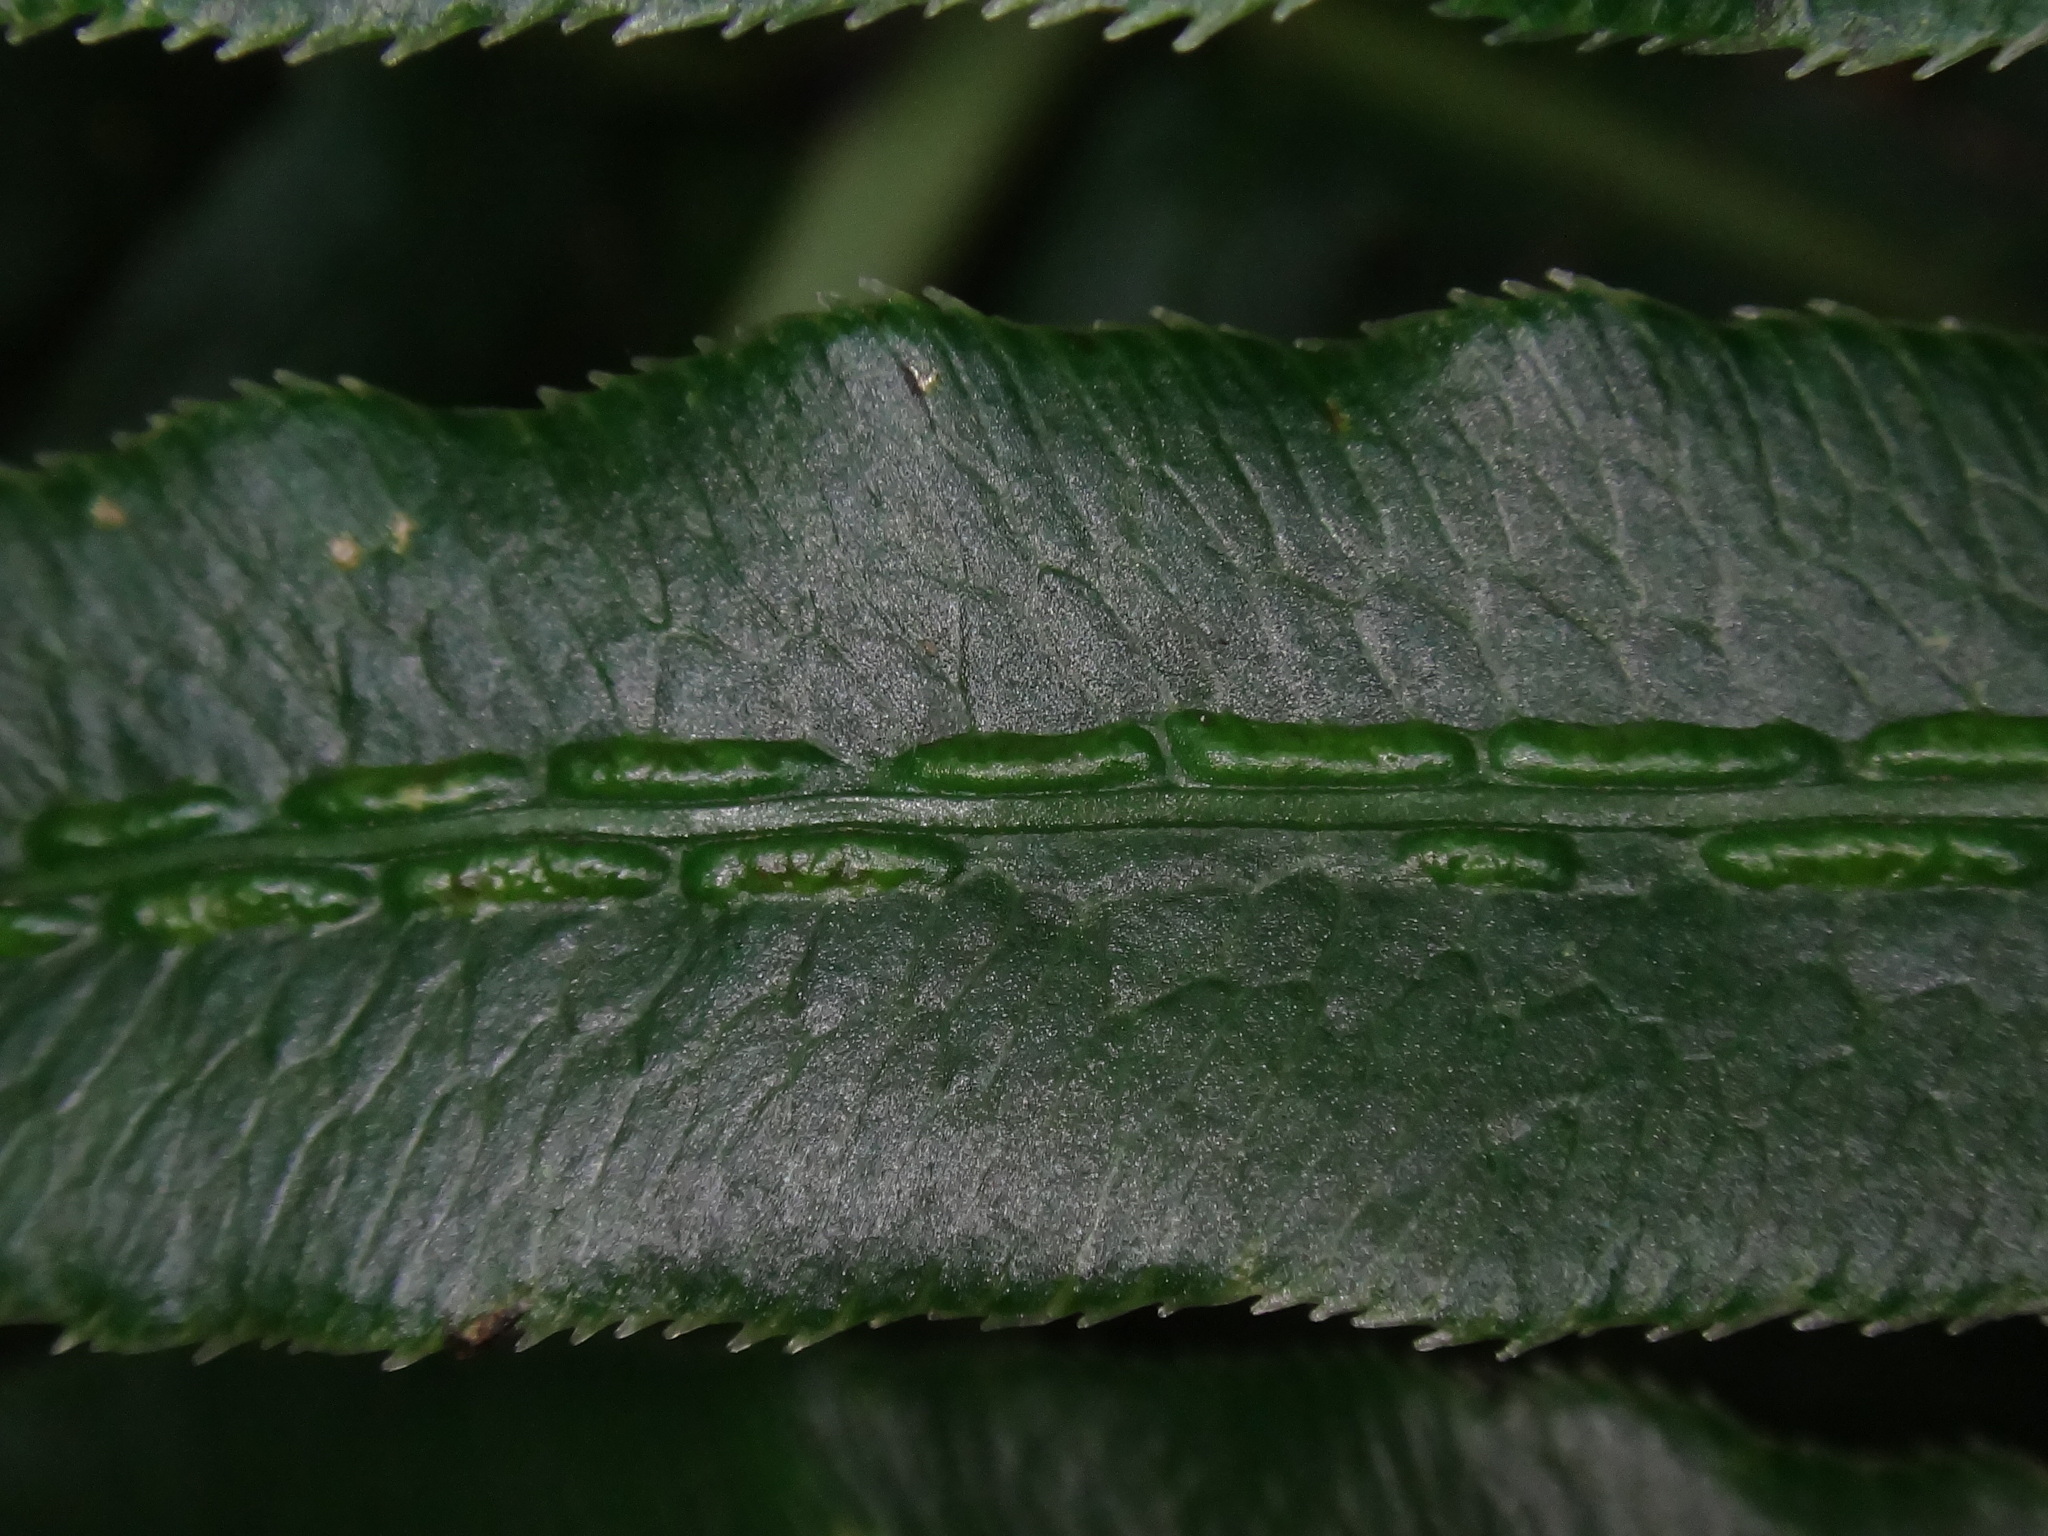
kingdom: Plantae
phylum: Tracheophyta
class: Polypodiopsida
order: Polypodiales
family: Blechnaceae
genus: Woodwardia
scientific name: Woodwardia radicans
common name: Rooting chainfern
